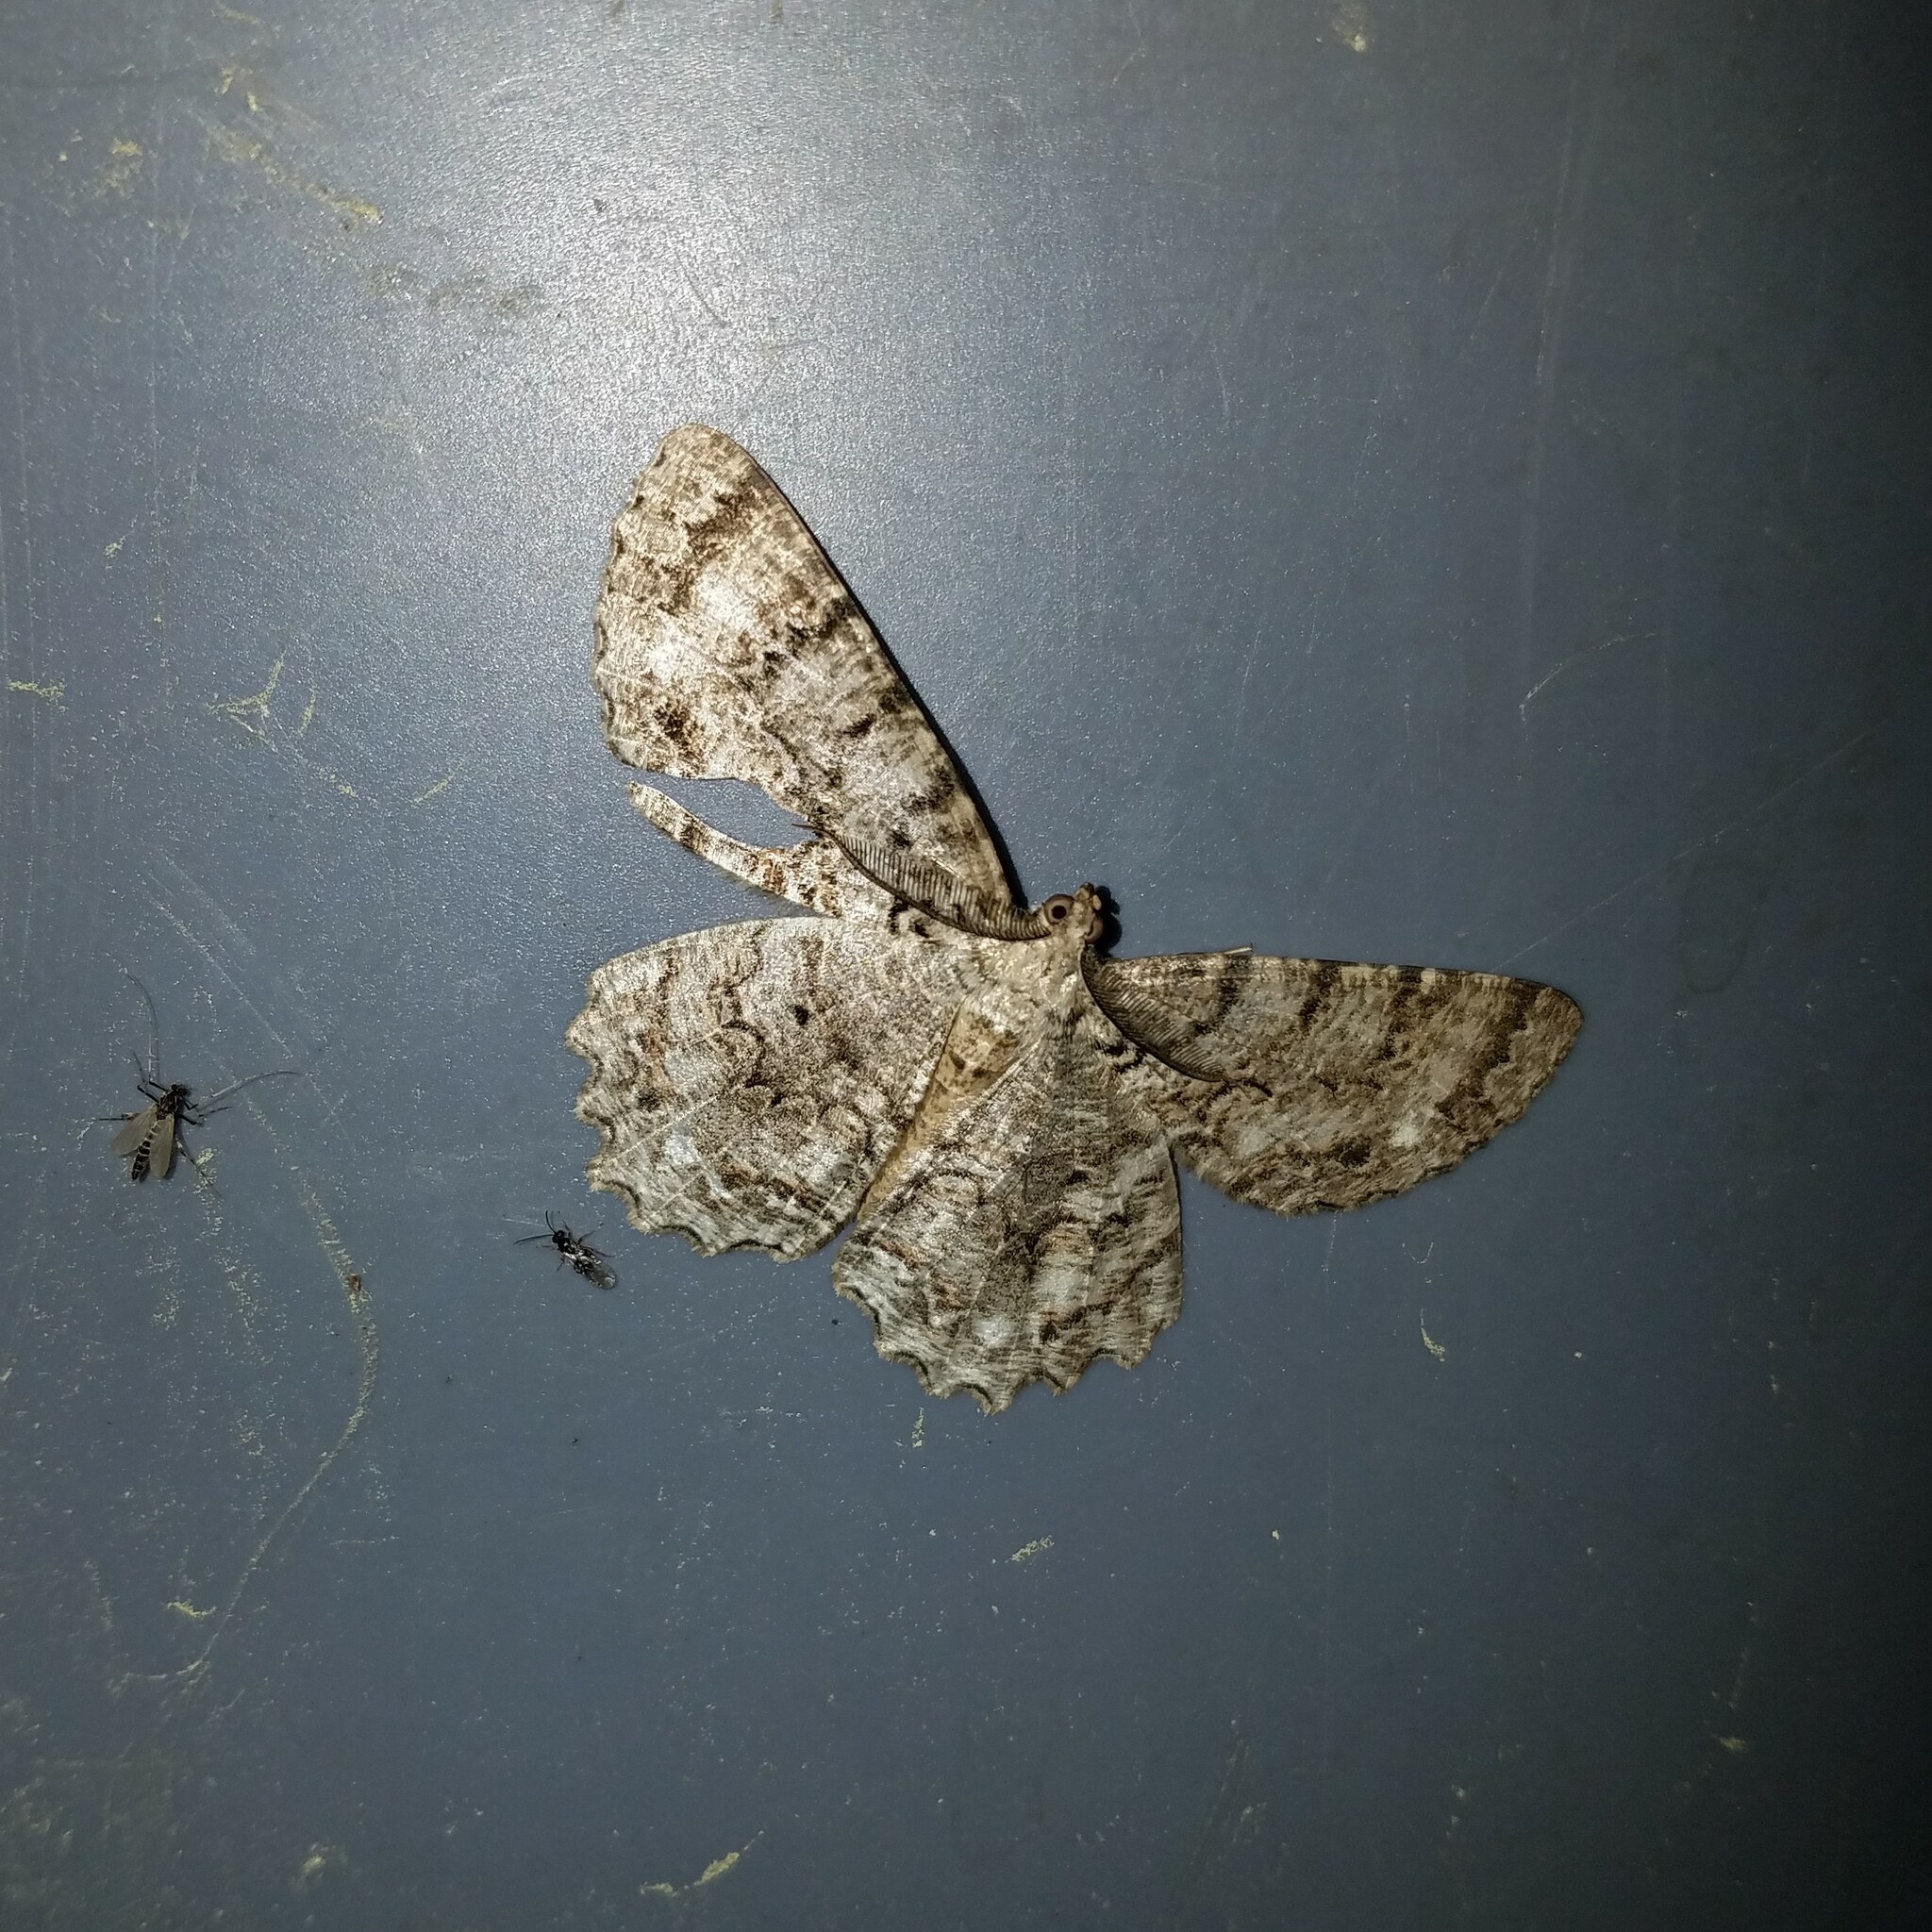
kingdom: Animalia
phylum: Arthropoda
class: Insecta
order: Lepidoptera
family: Geometridae
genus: Epimecis
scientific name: Epimecis hortaria
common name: Tulip-tree beauty
